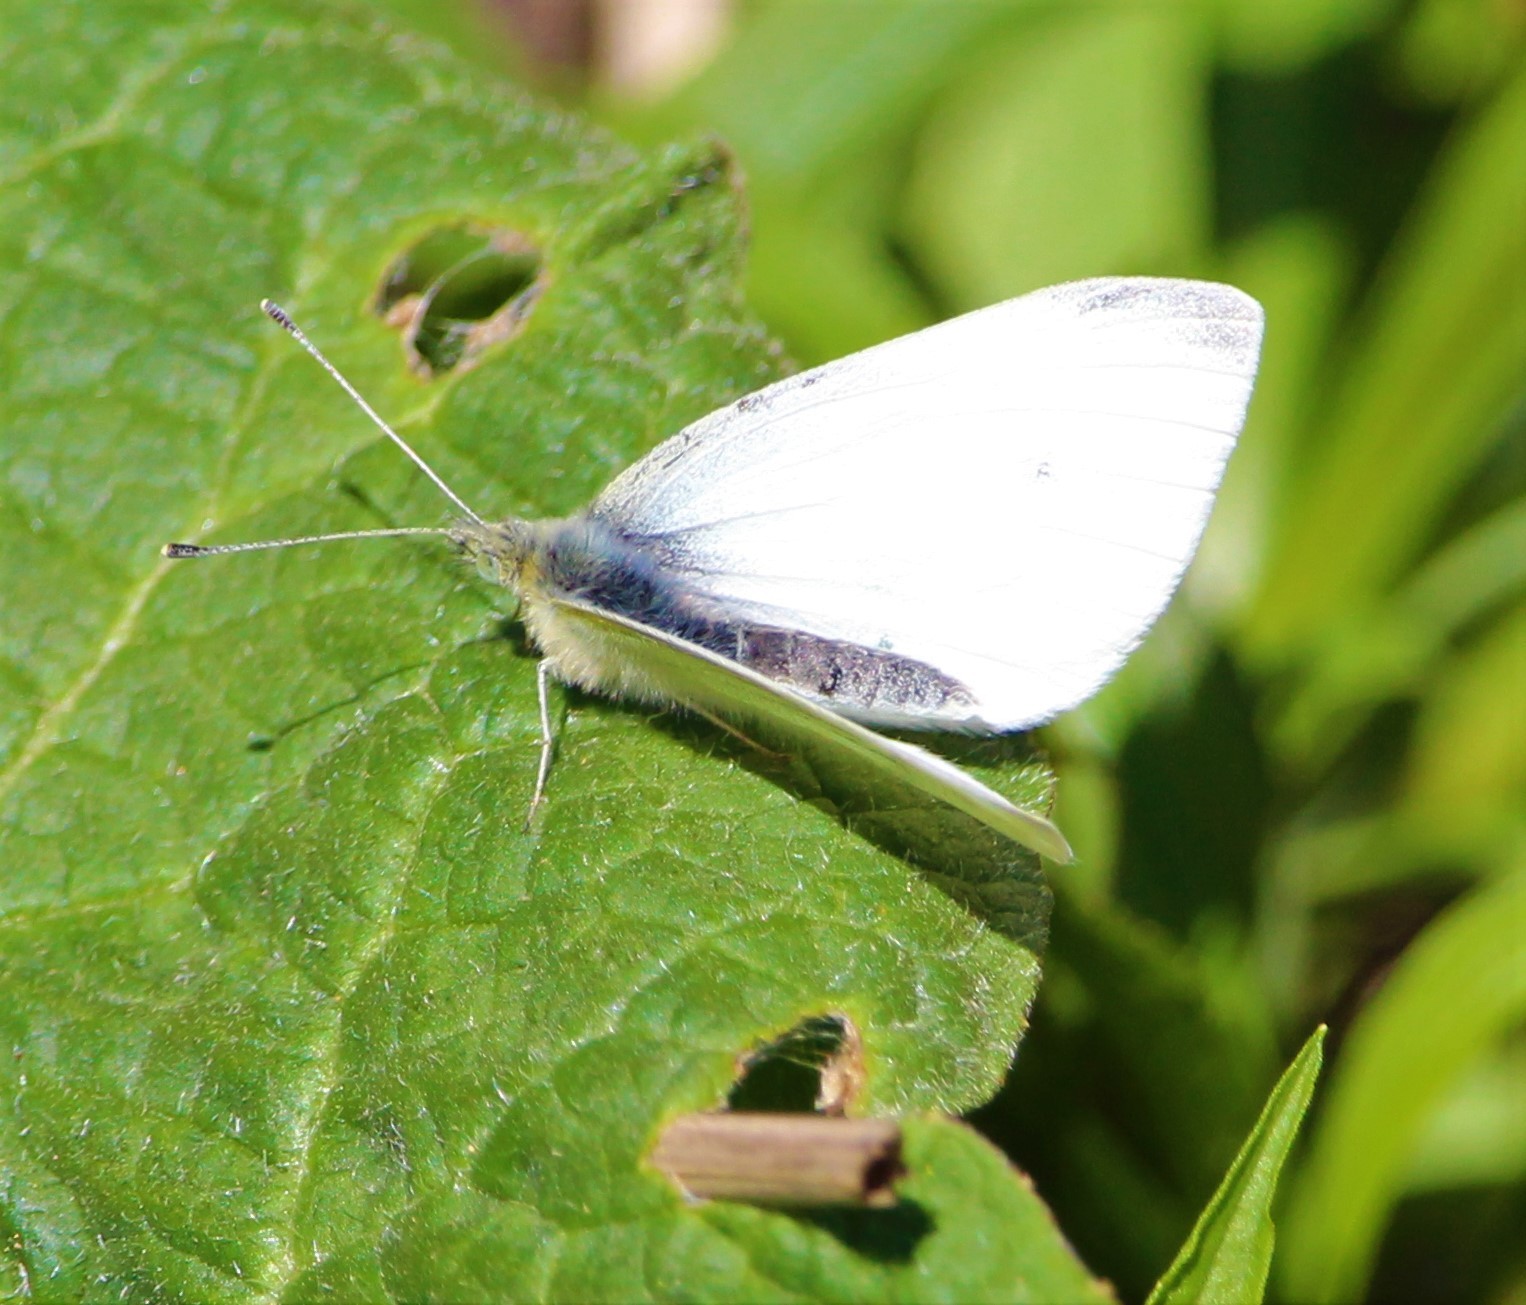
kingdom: Animalia
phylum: Arthropoda
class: Insecta
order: Lepidoptera
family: Pieridae
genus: Pieris
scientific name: Pieris rapae
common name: Small white
